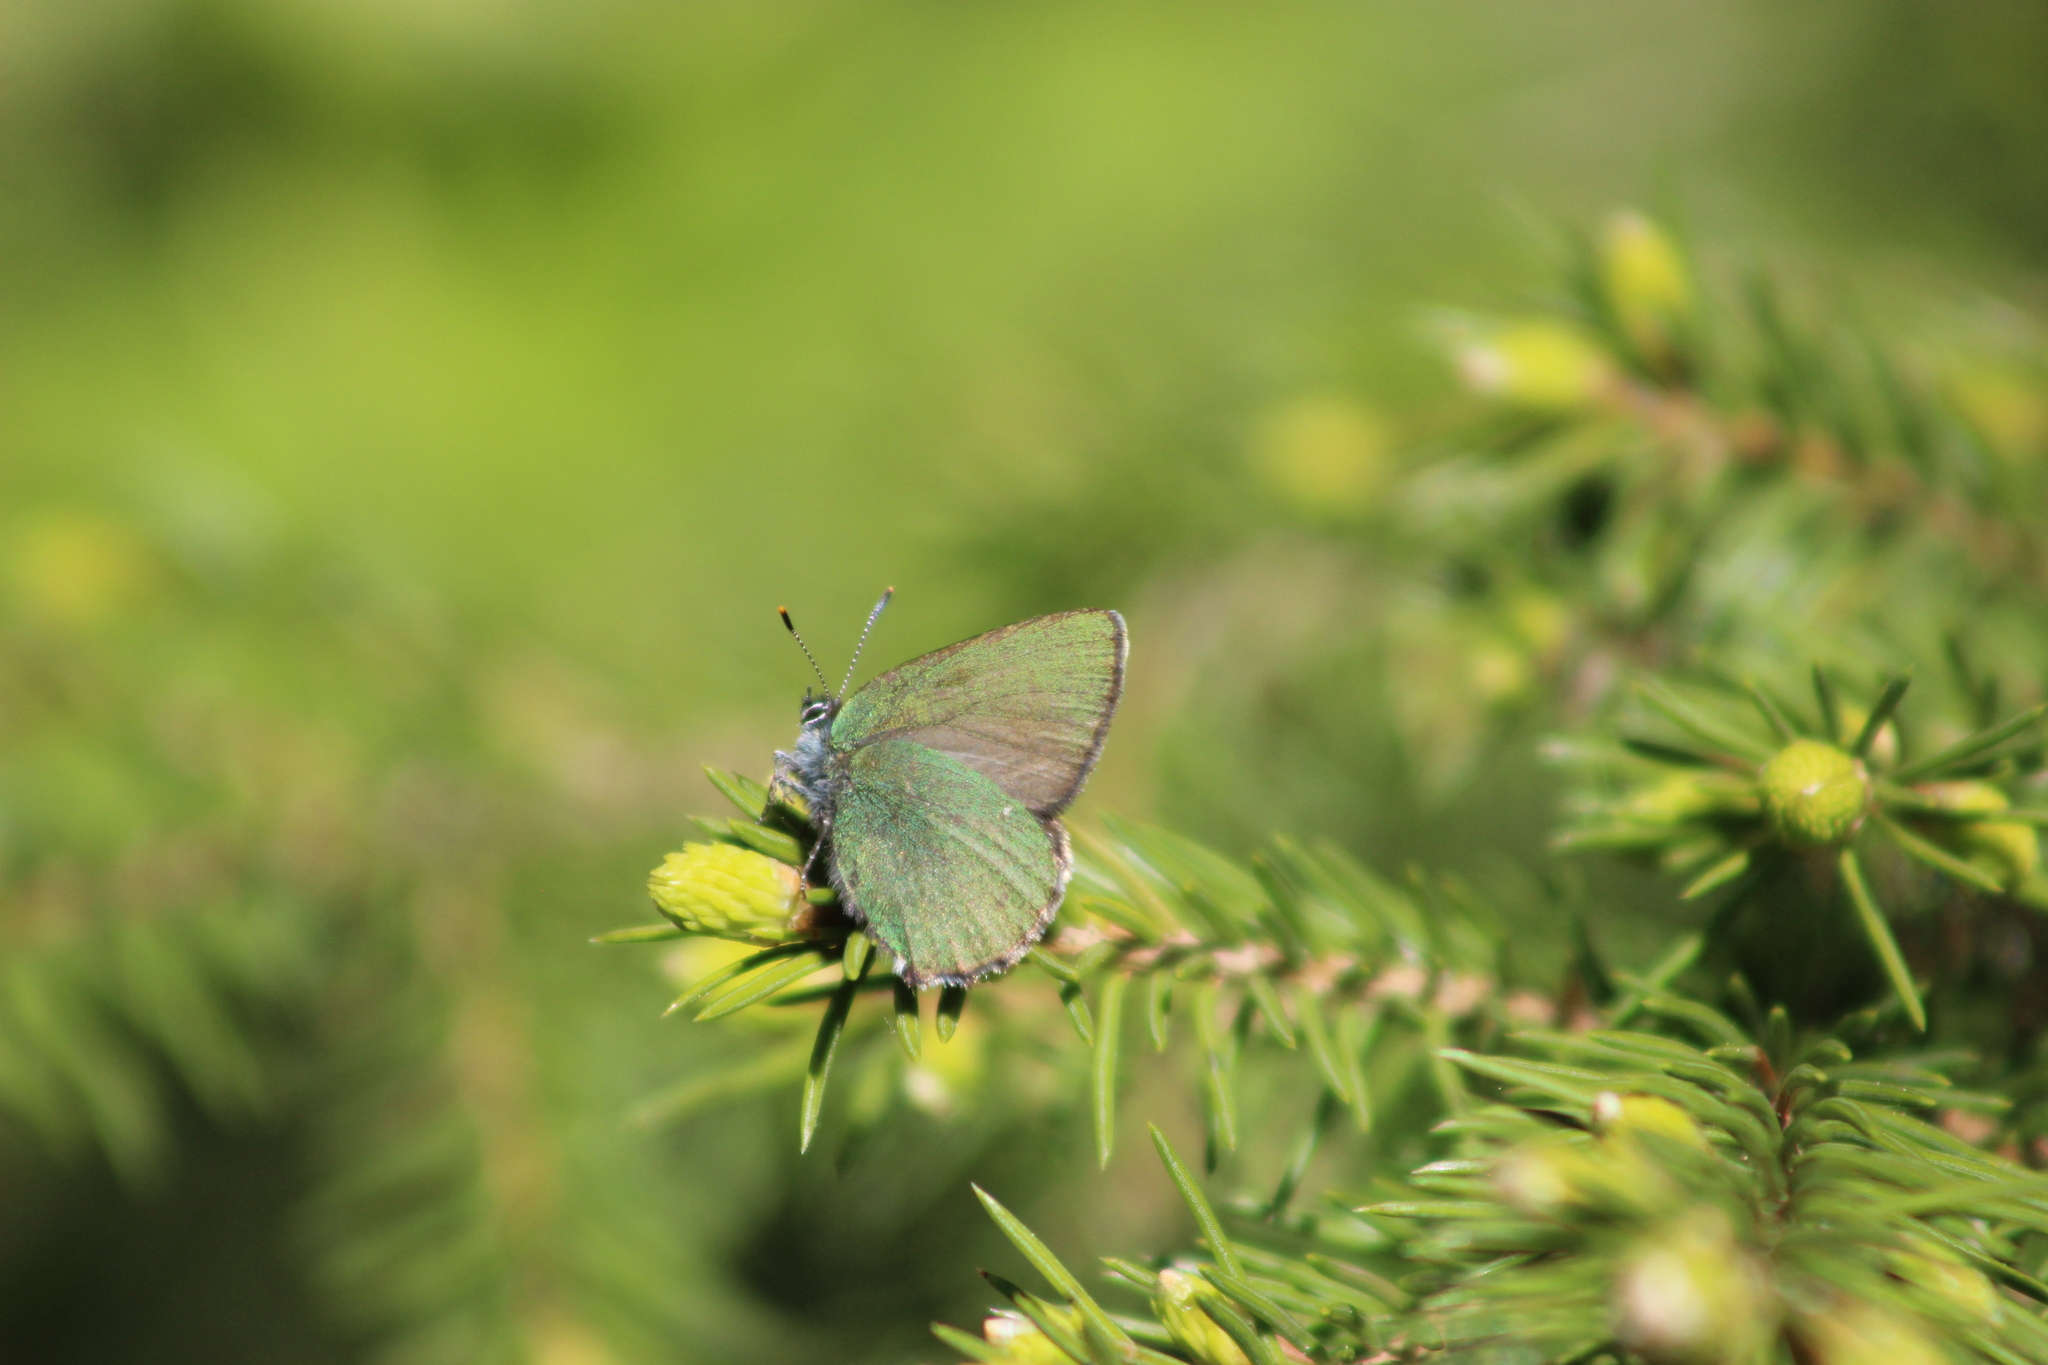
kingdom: Animalia
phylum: Arthropoda
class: Insecta
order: Lepidoptera
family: Lycaenidae
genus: Callophrys
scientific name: Callophrys rubi
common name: Green hairstreak
